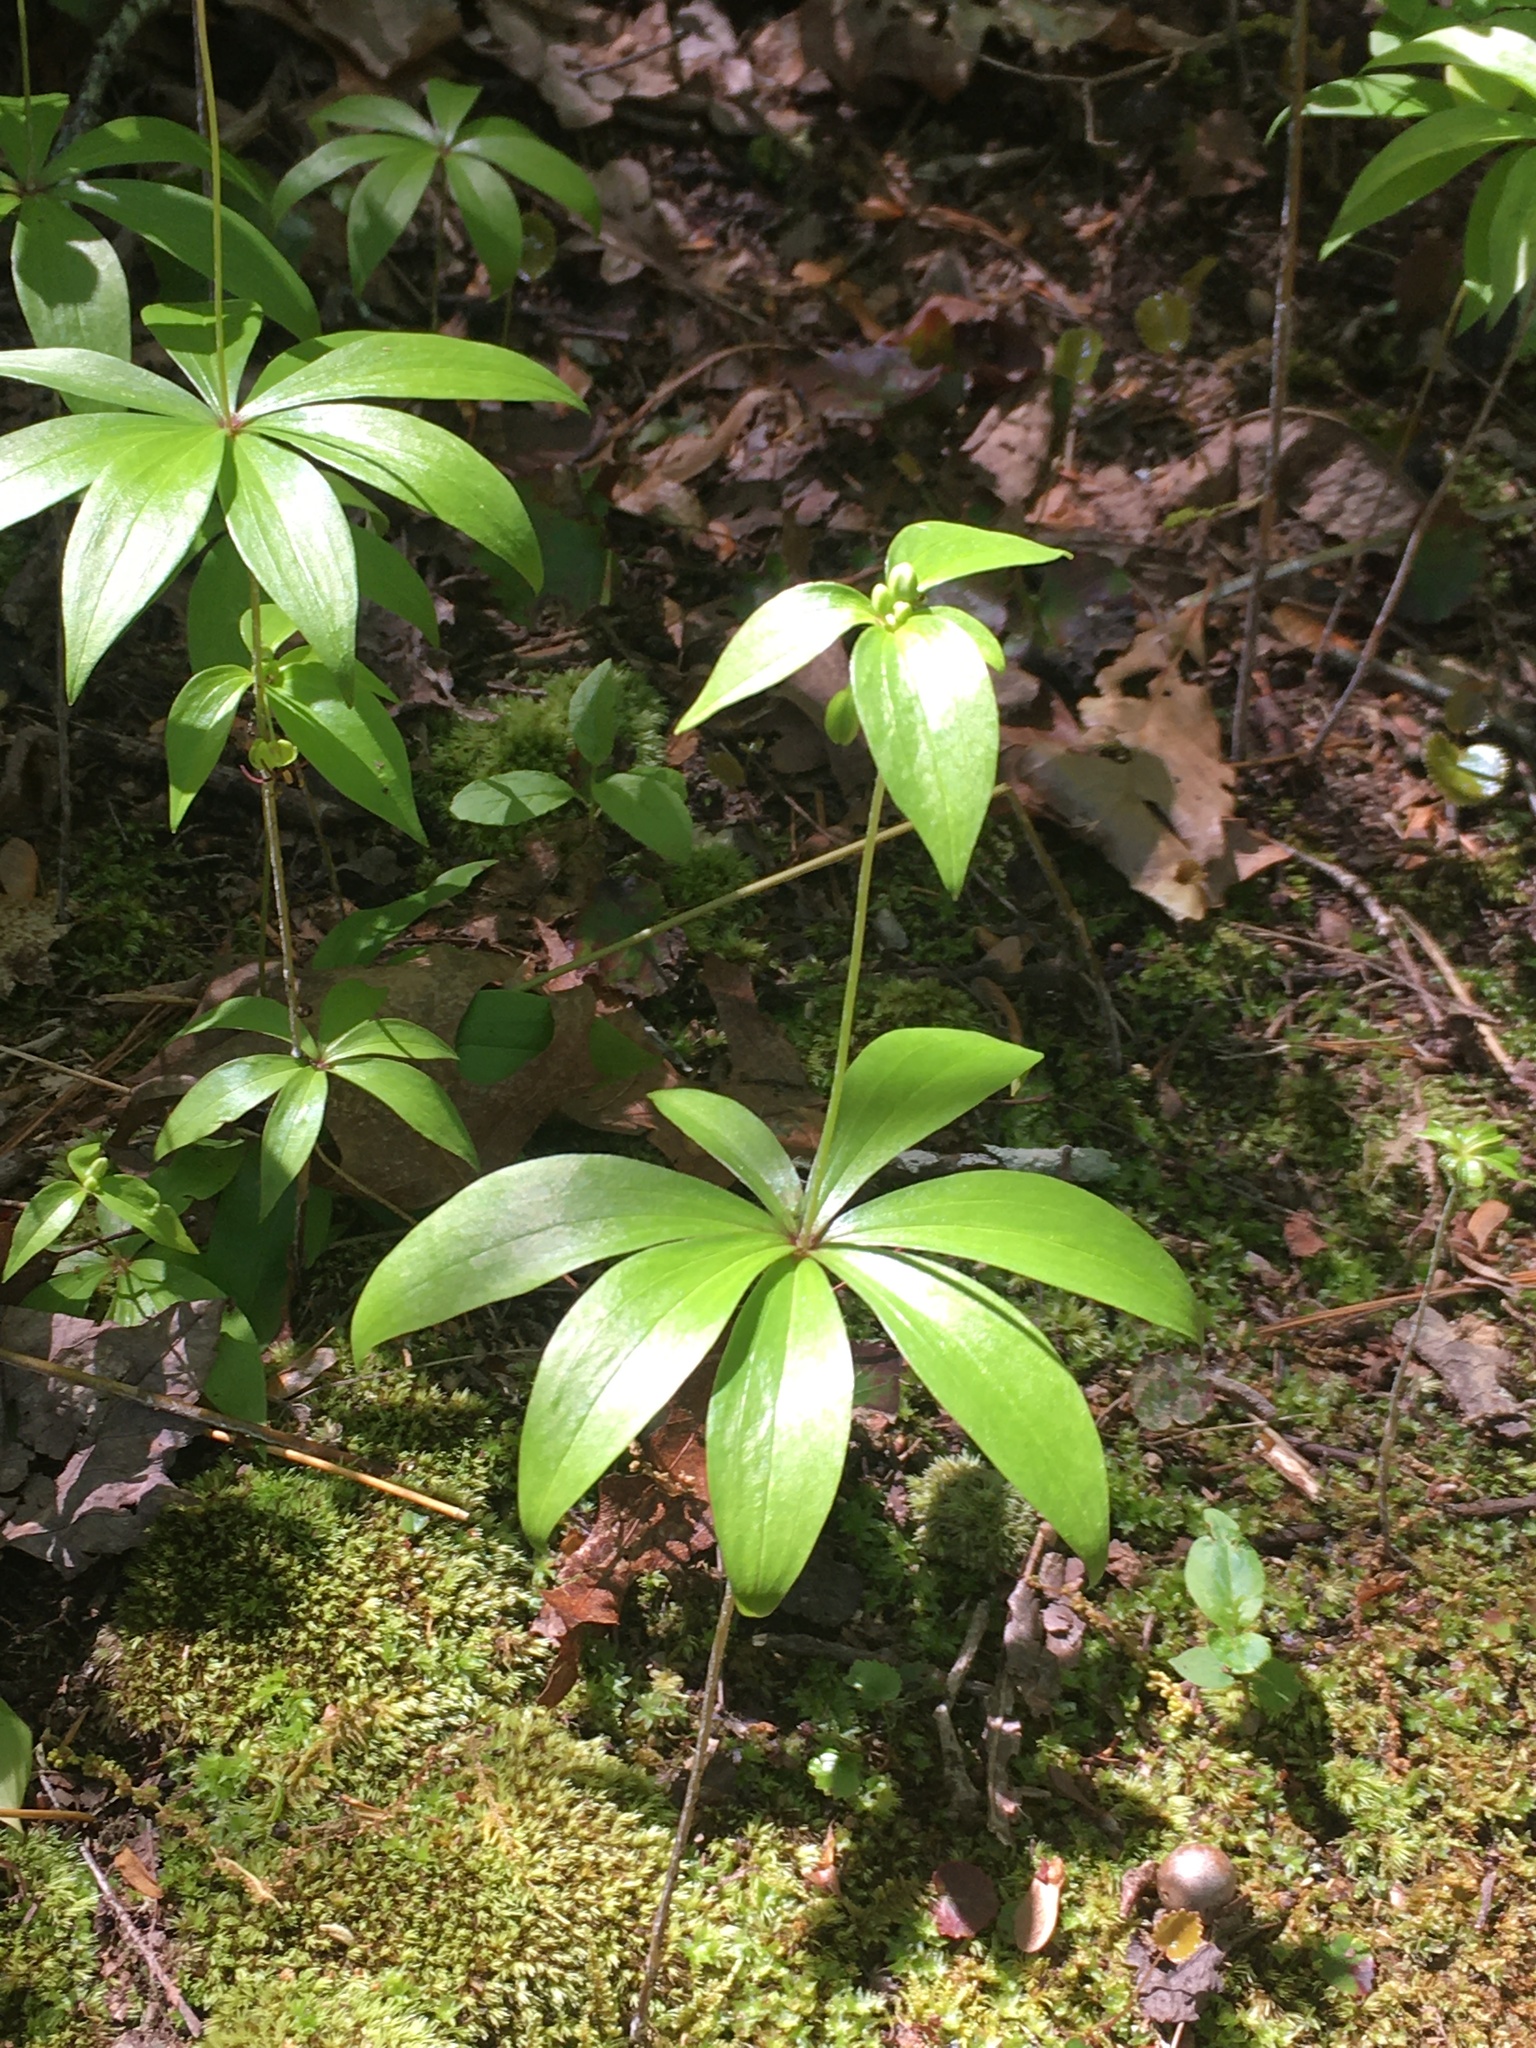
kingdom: Plantae
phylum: Tracheophyta
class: Liliopsida
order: Liliales
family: Liliaceae
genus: Medeola
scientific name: Medeola virginiana
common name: Indian cucumber-root
